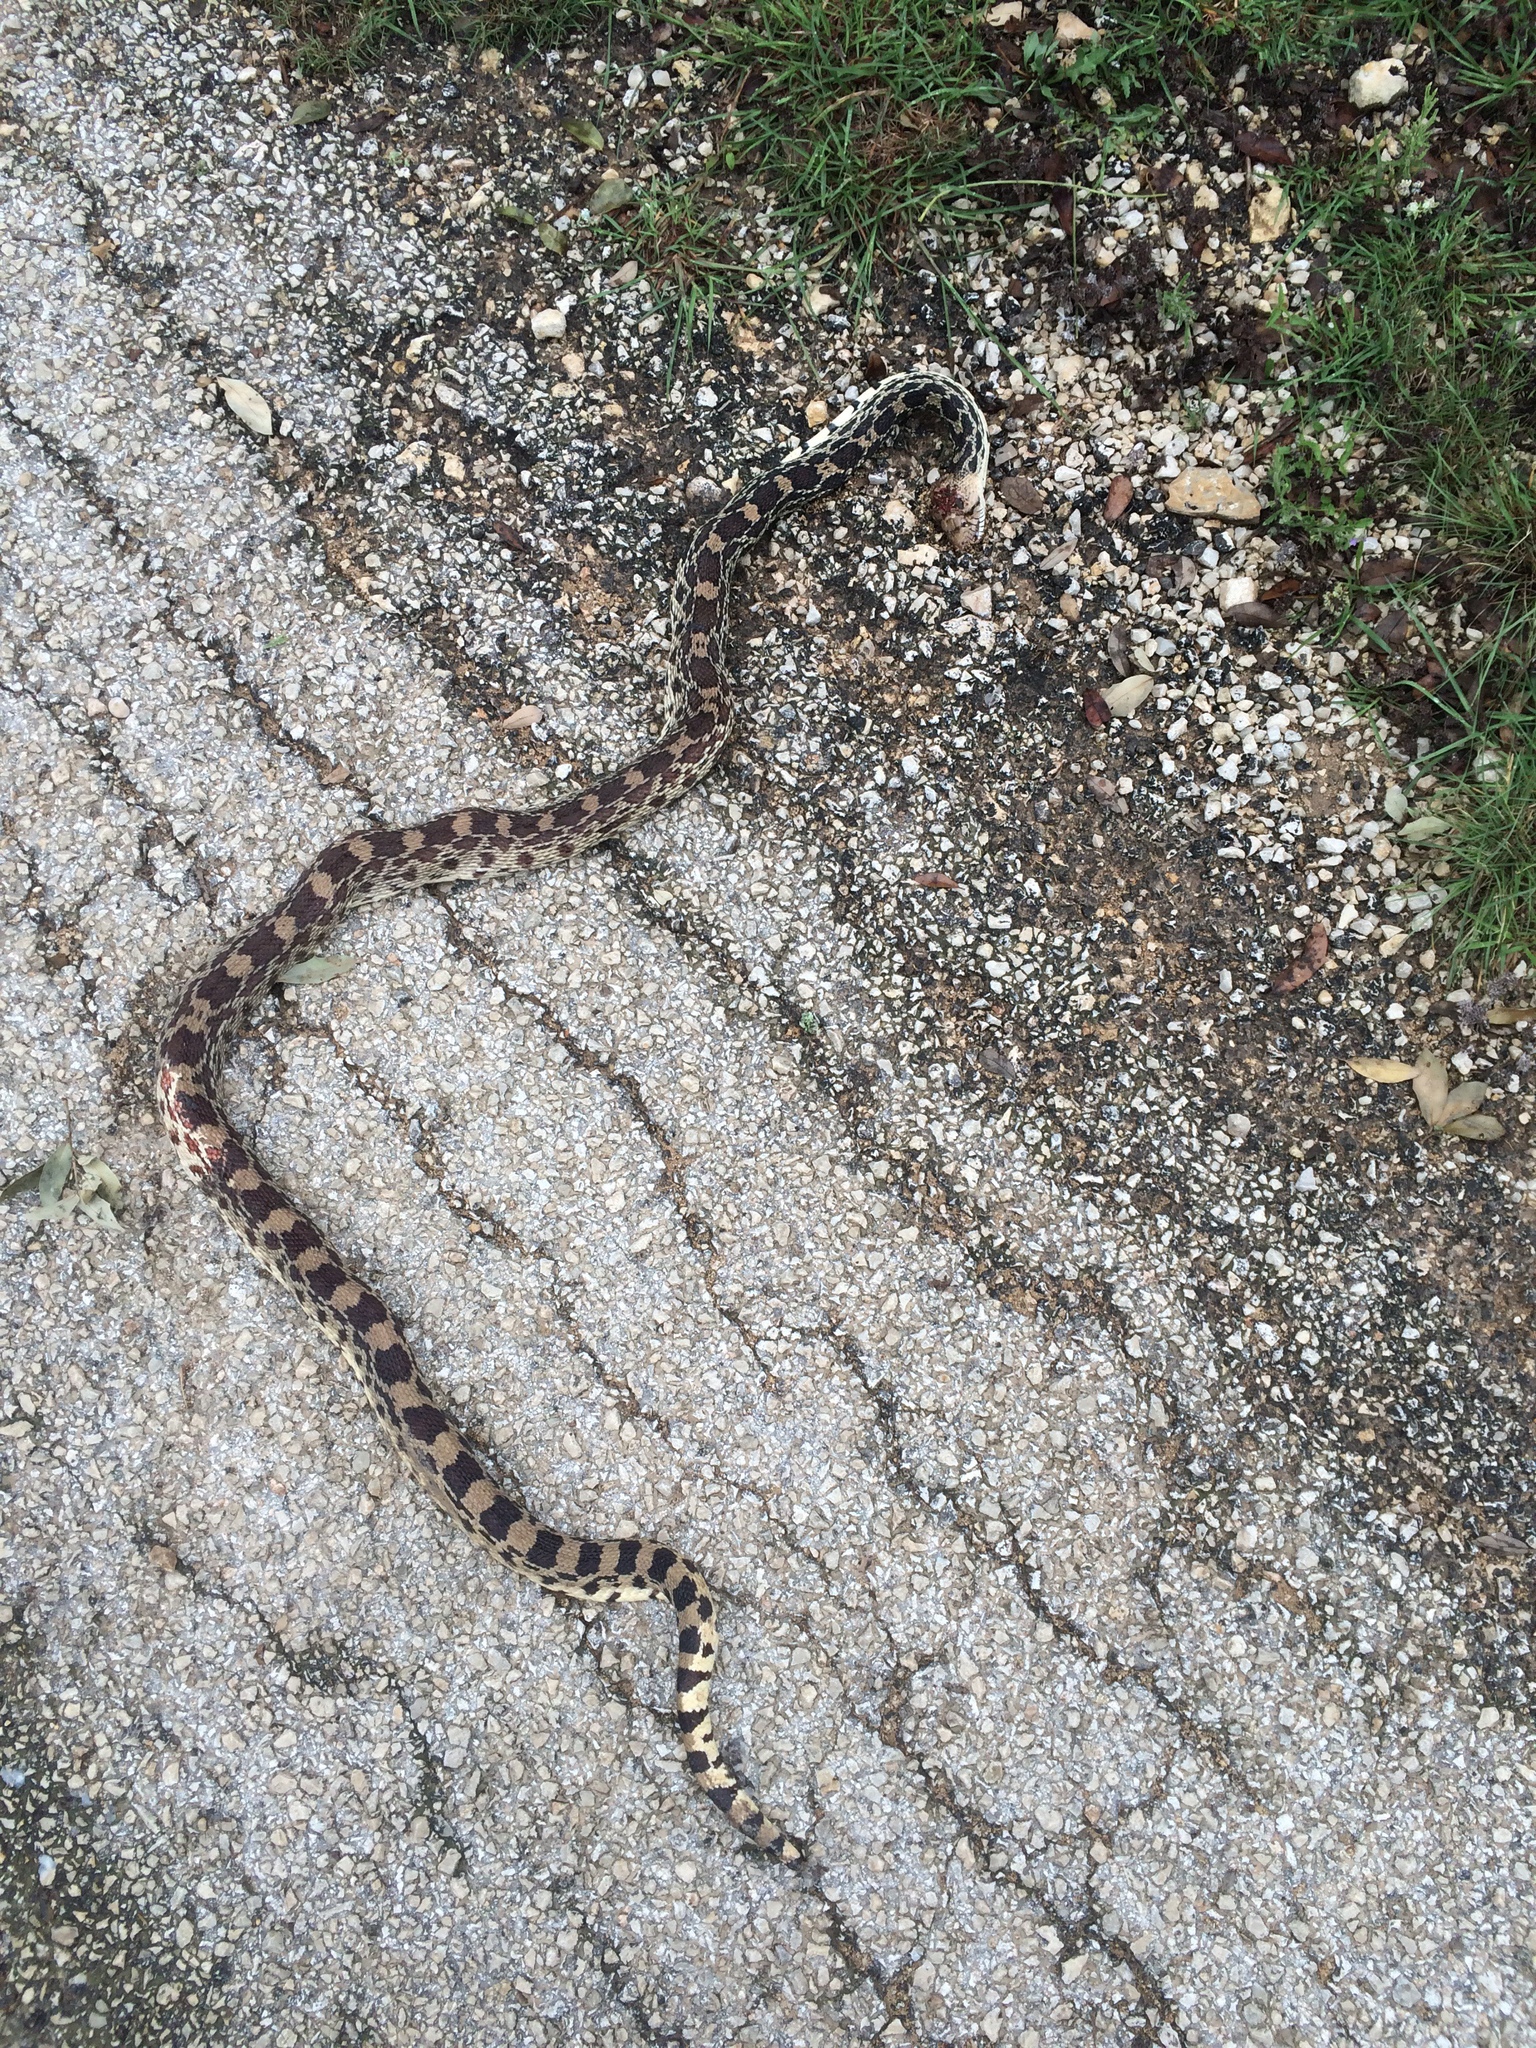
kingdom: Animalia
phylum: Chordata
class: Squamata
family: Colubridae
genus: Pituophis
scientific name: Pituophis catenifer
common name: Gopher snake
